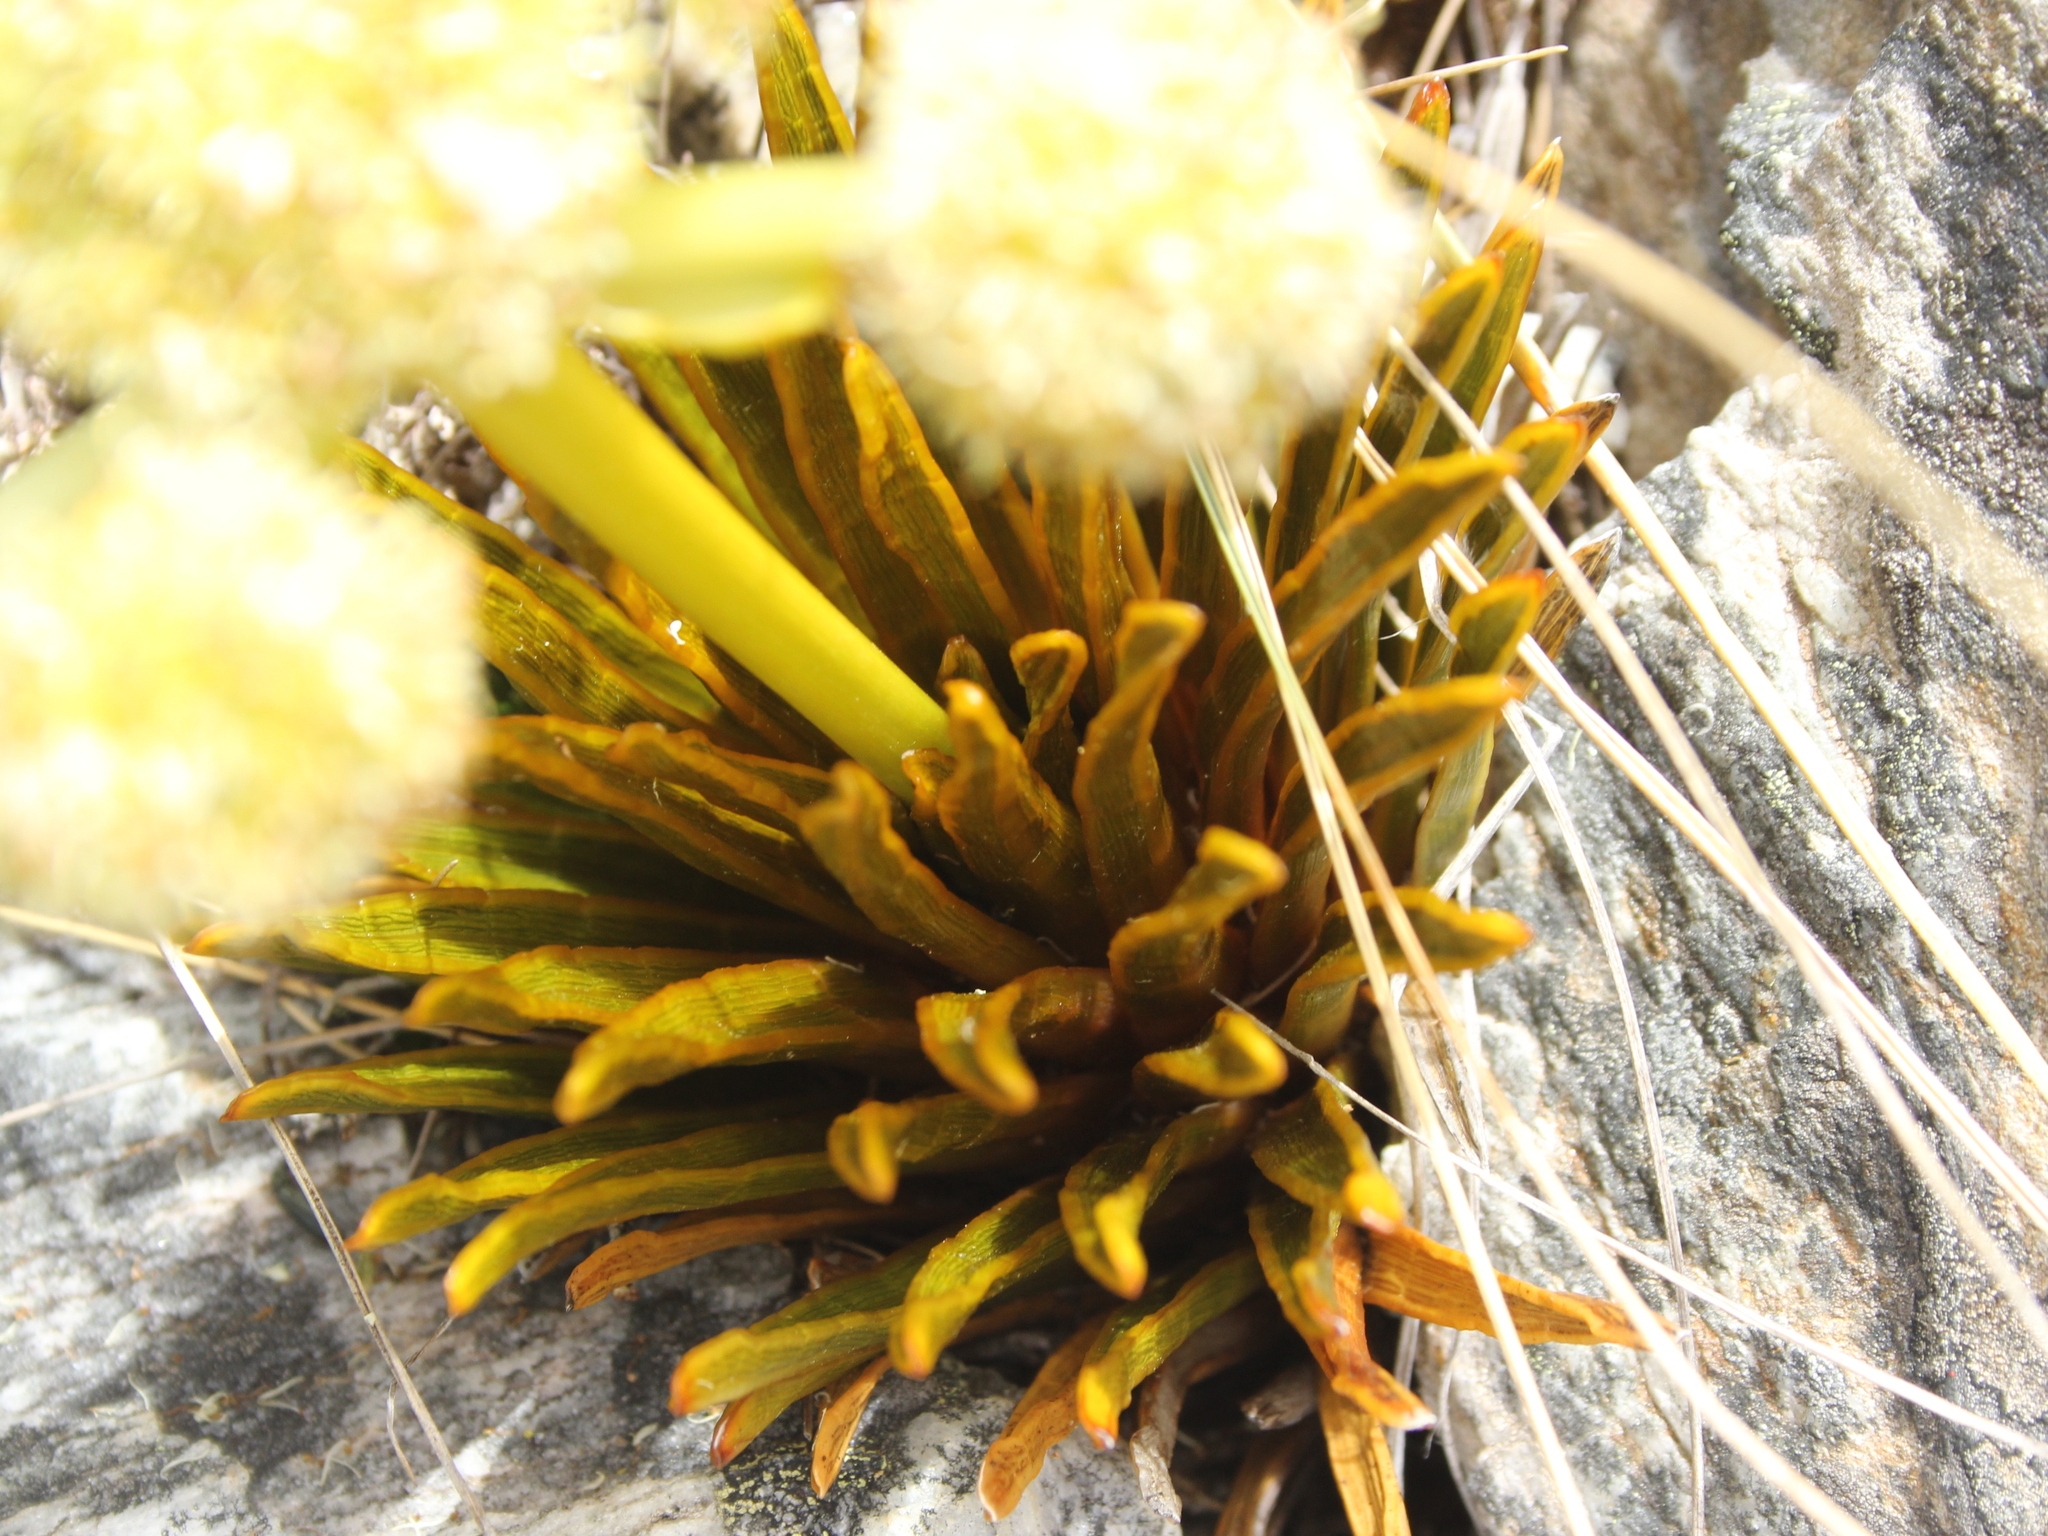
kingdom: Plantae
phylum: Tracheophyta
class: Magnoliopsida
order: Apiales
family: Apiaceae
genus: Aciphylla
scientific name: Aciphylla simplex
